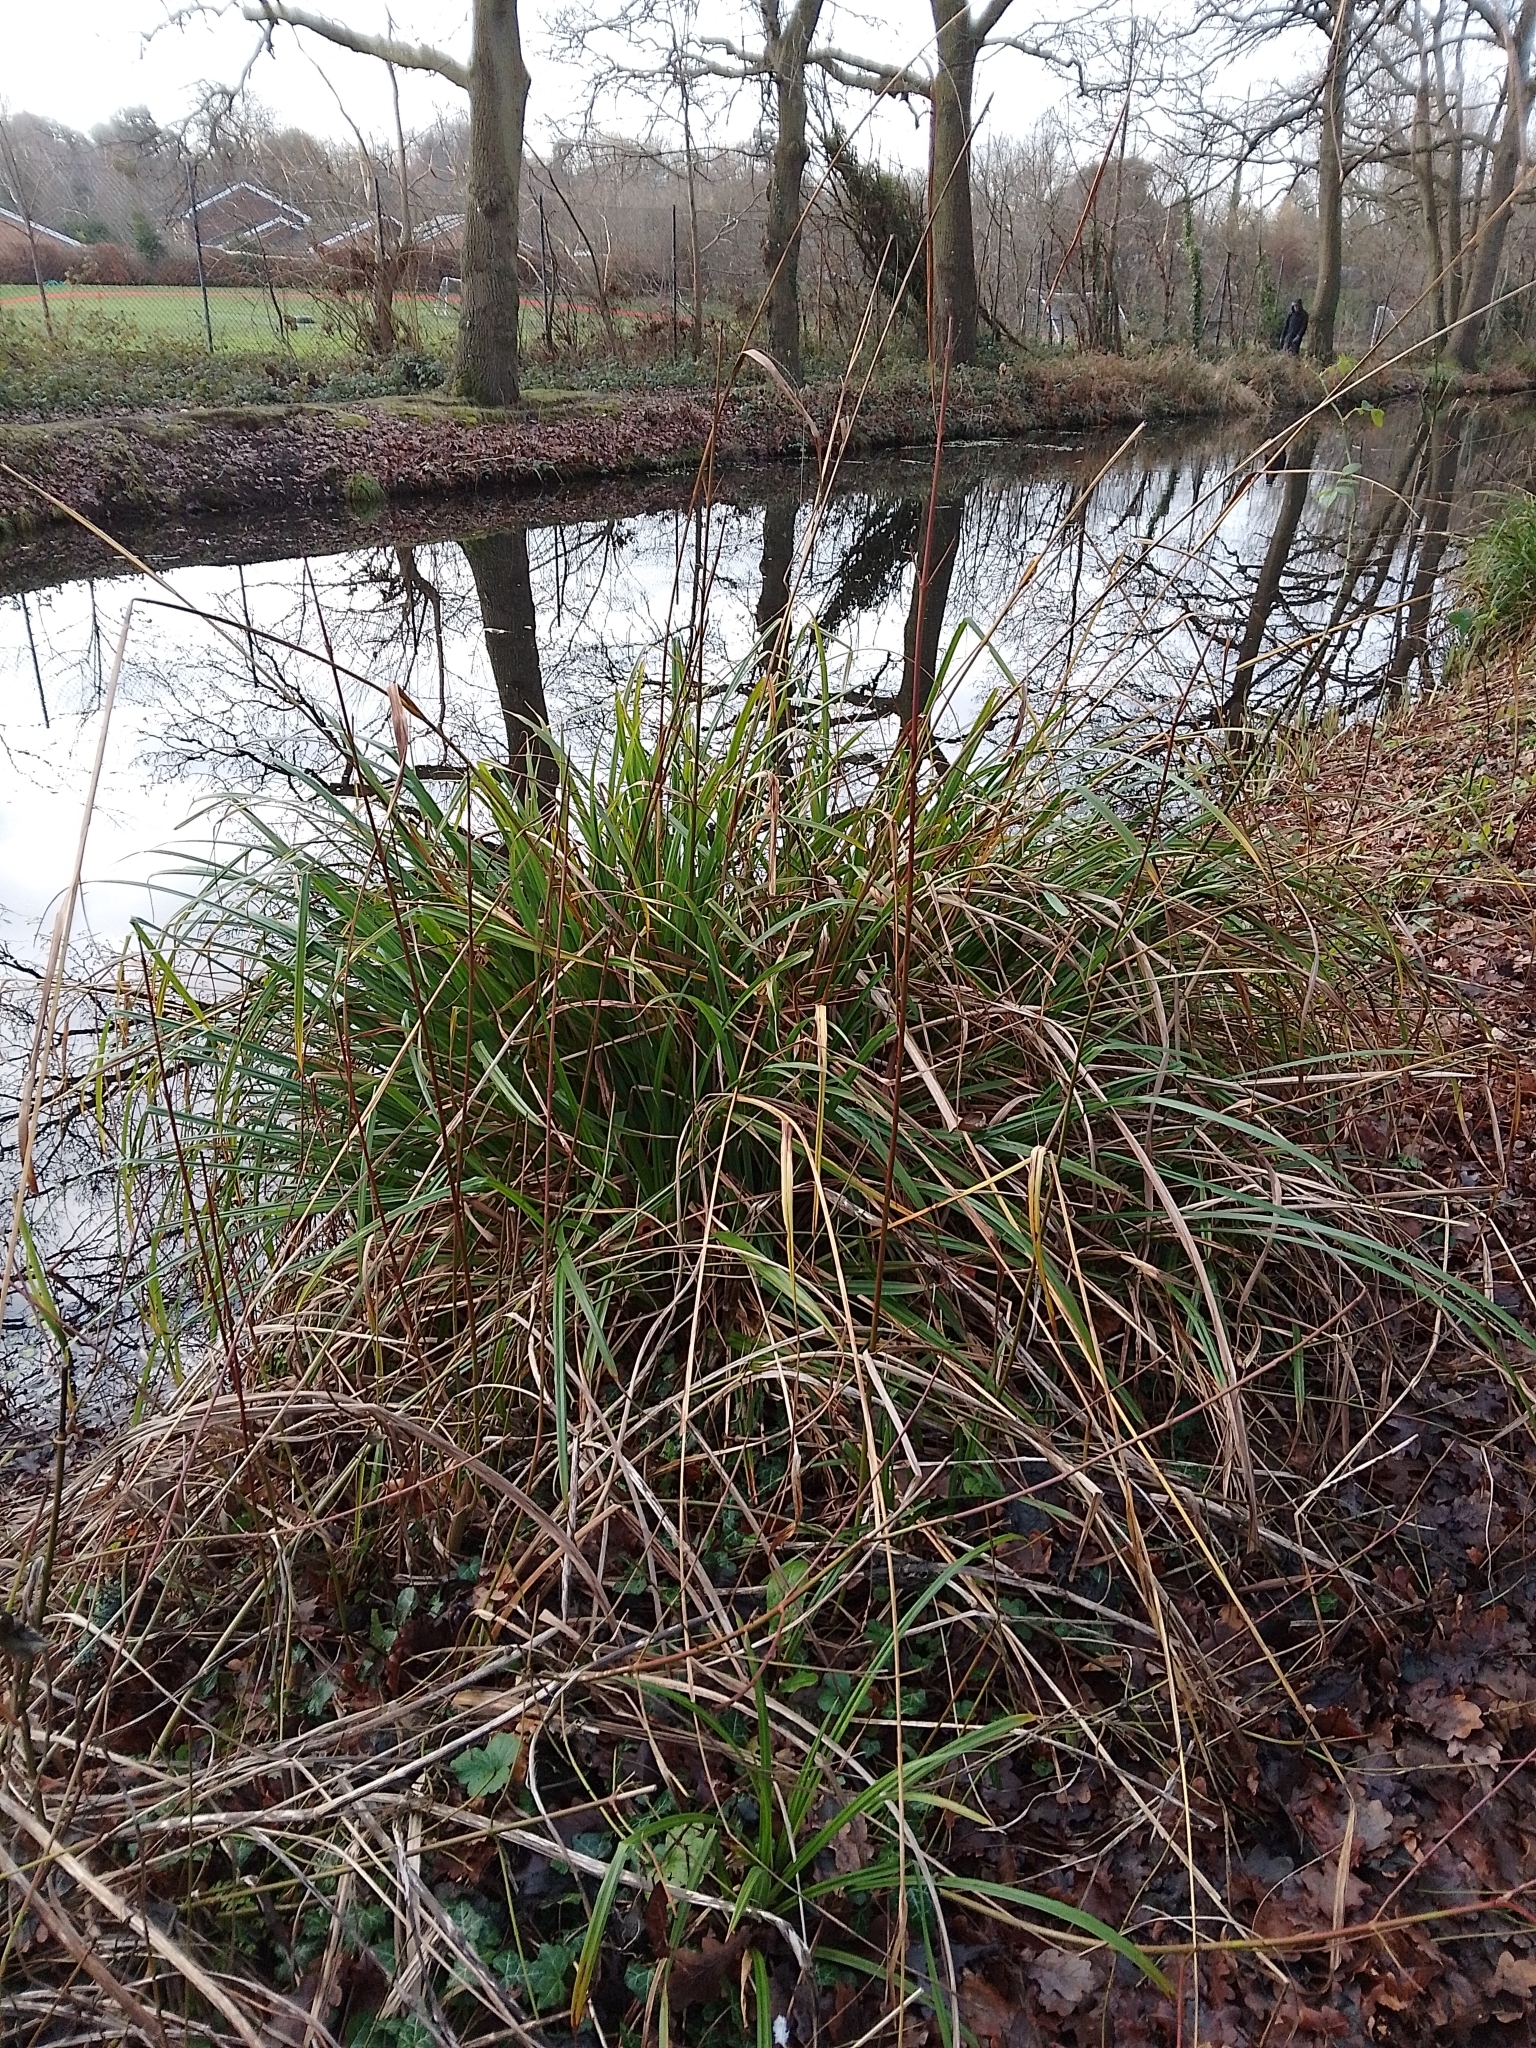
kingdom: Plantae
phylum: Tracheophyta
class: Liliopsida
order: Poales
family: Cyperaceae
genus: Carex
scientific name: Carex pendula
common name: Pendulous sedge
